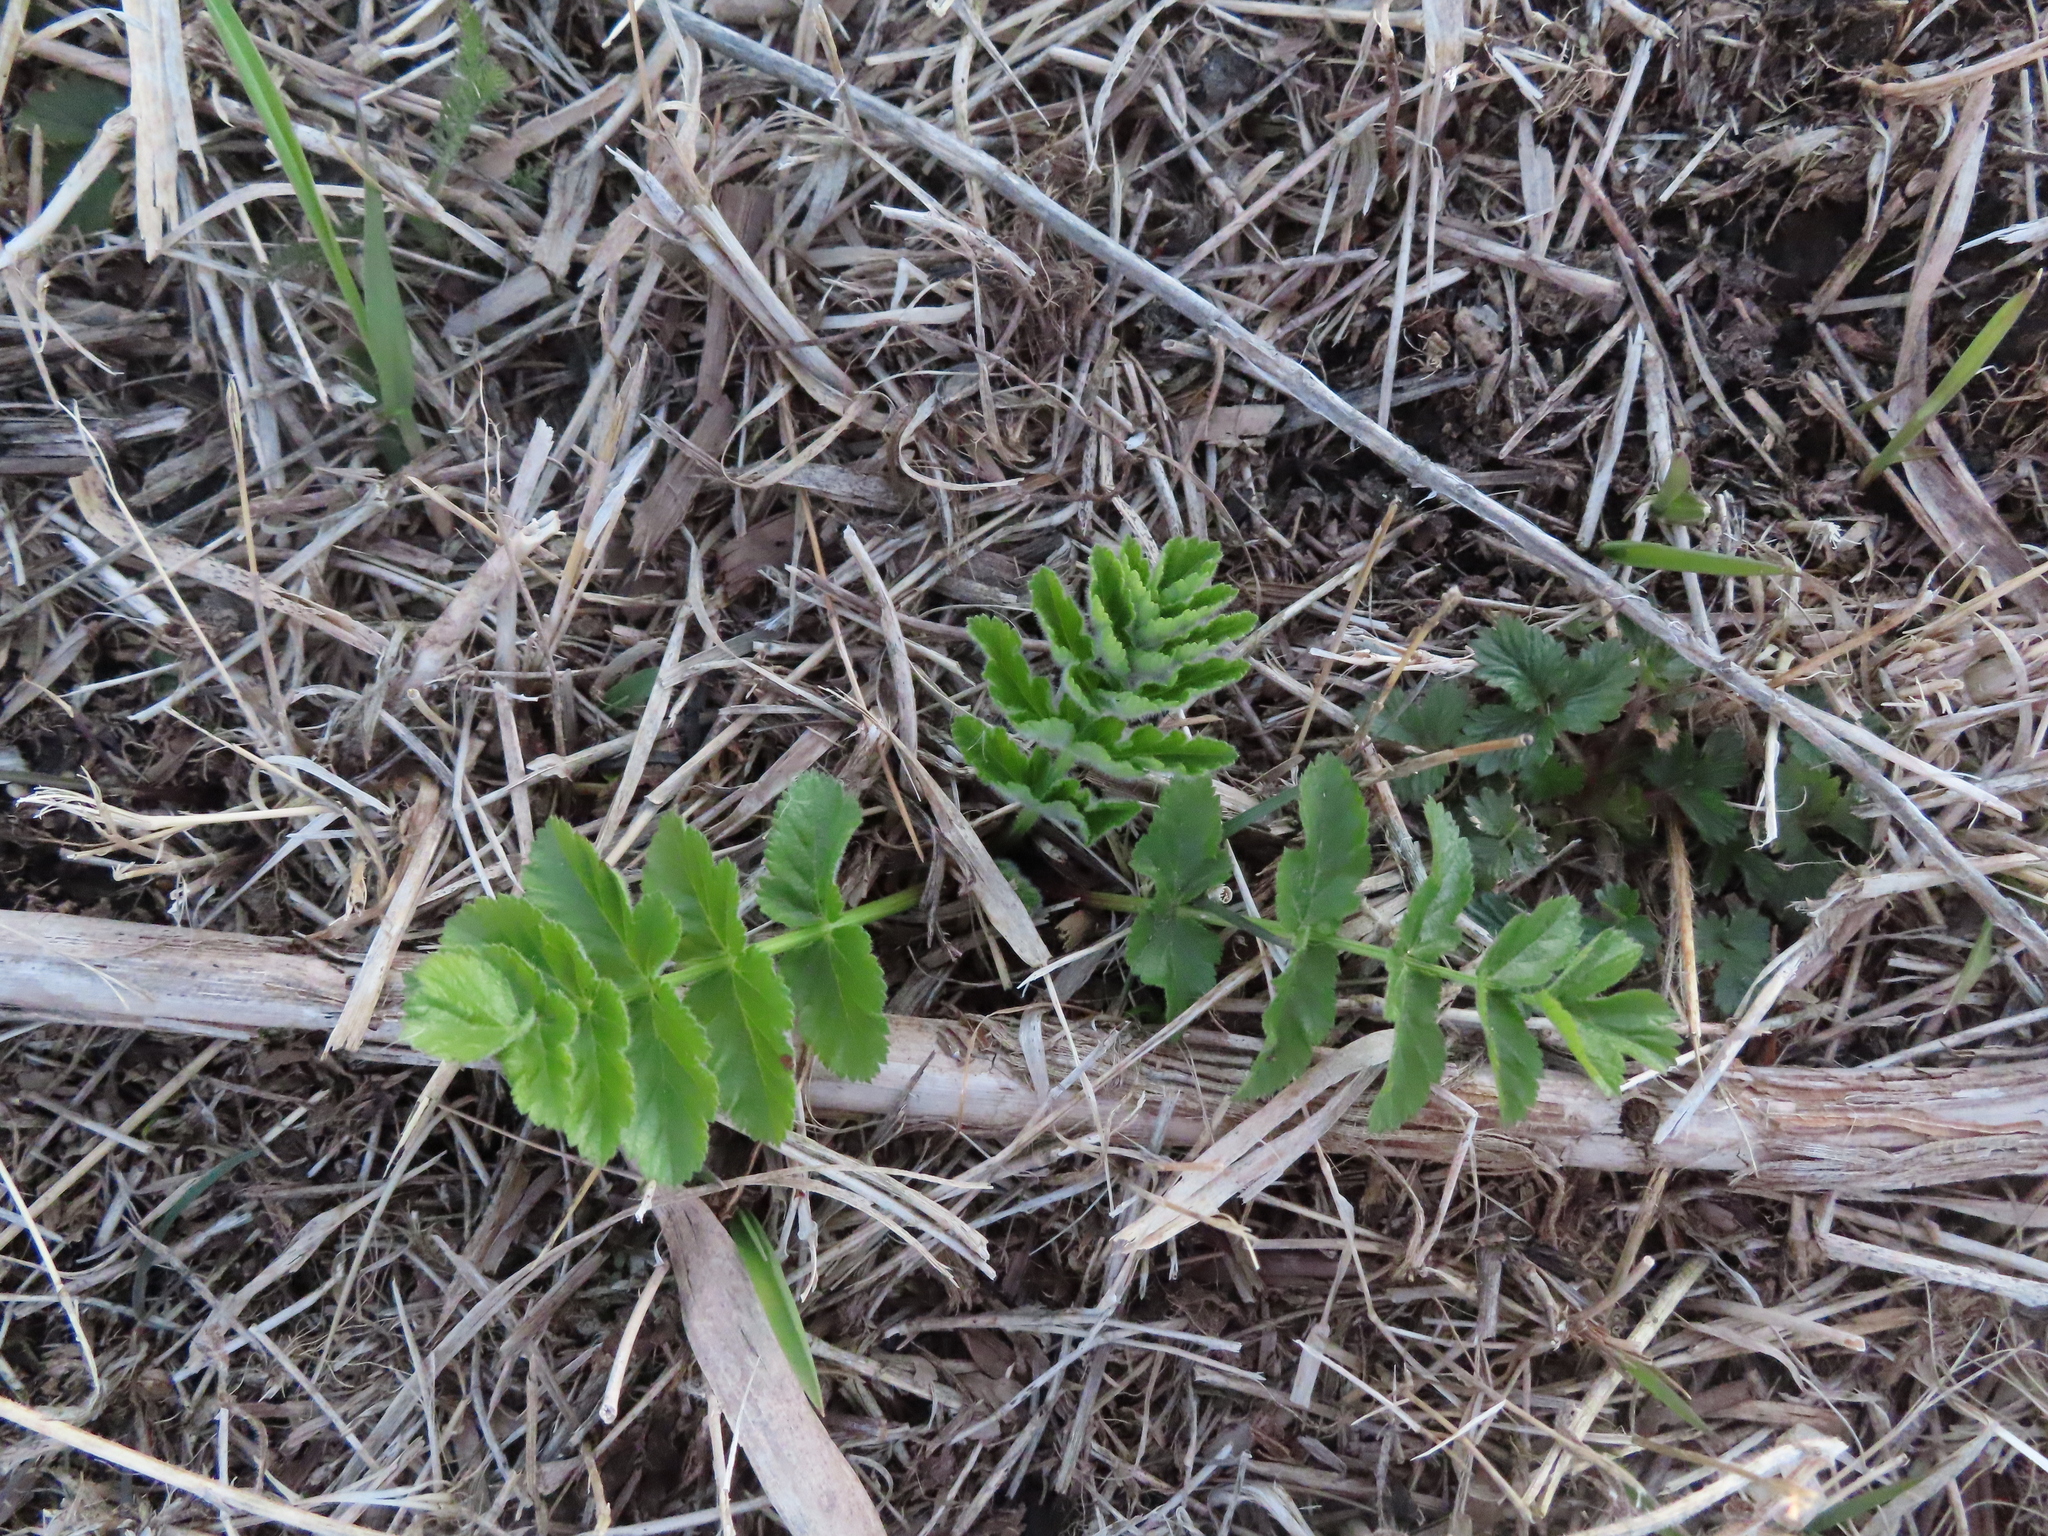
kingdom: Plantae
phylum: Tracheophyta
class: Magnoliopsida
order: Apiales
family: Apiaceae
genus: Pastinaca
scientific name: Pastinaca sativa
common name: Wild parsnip
